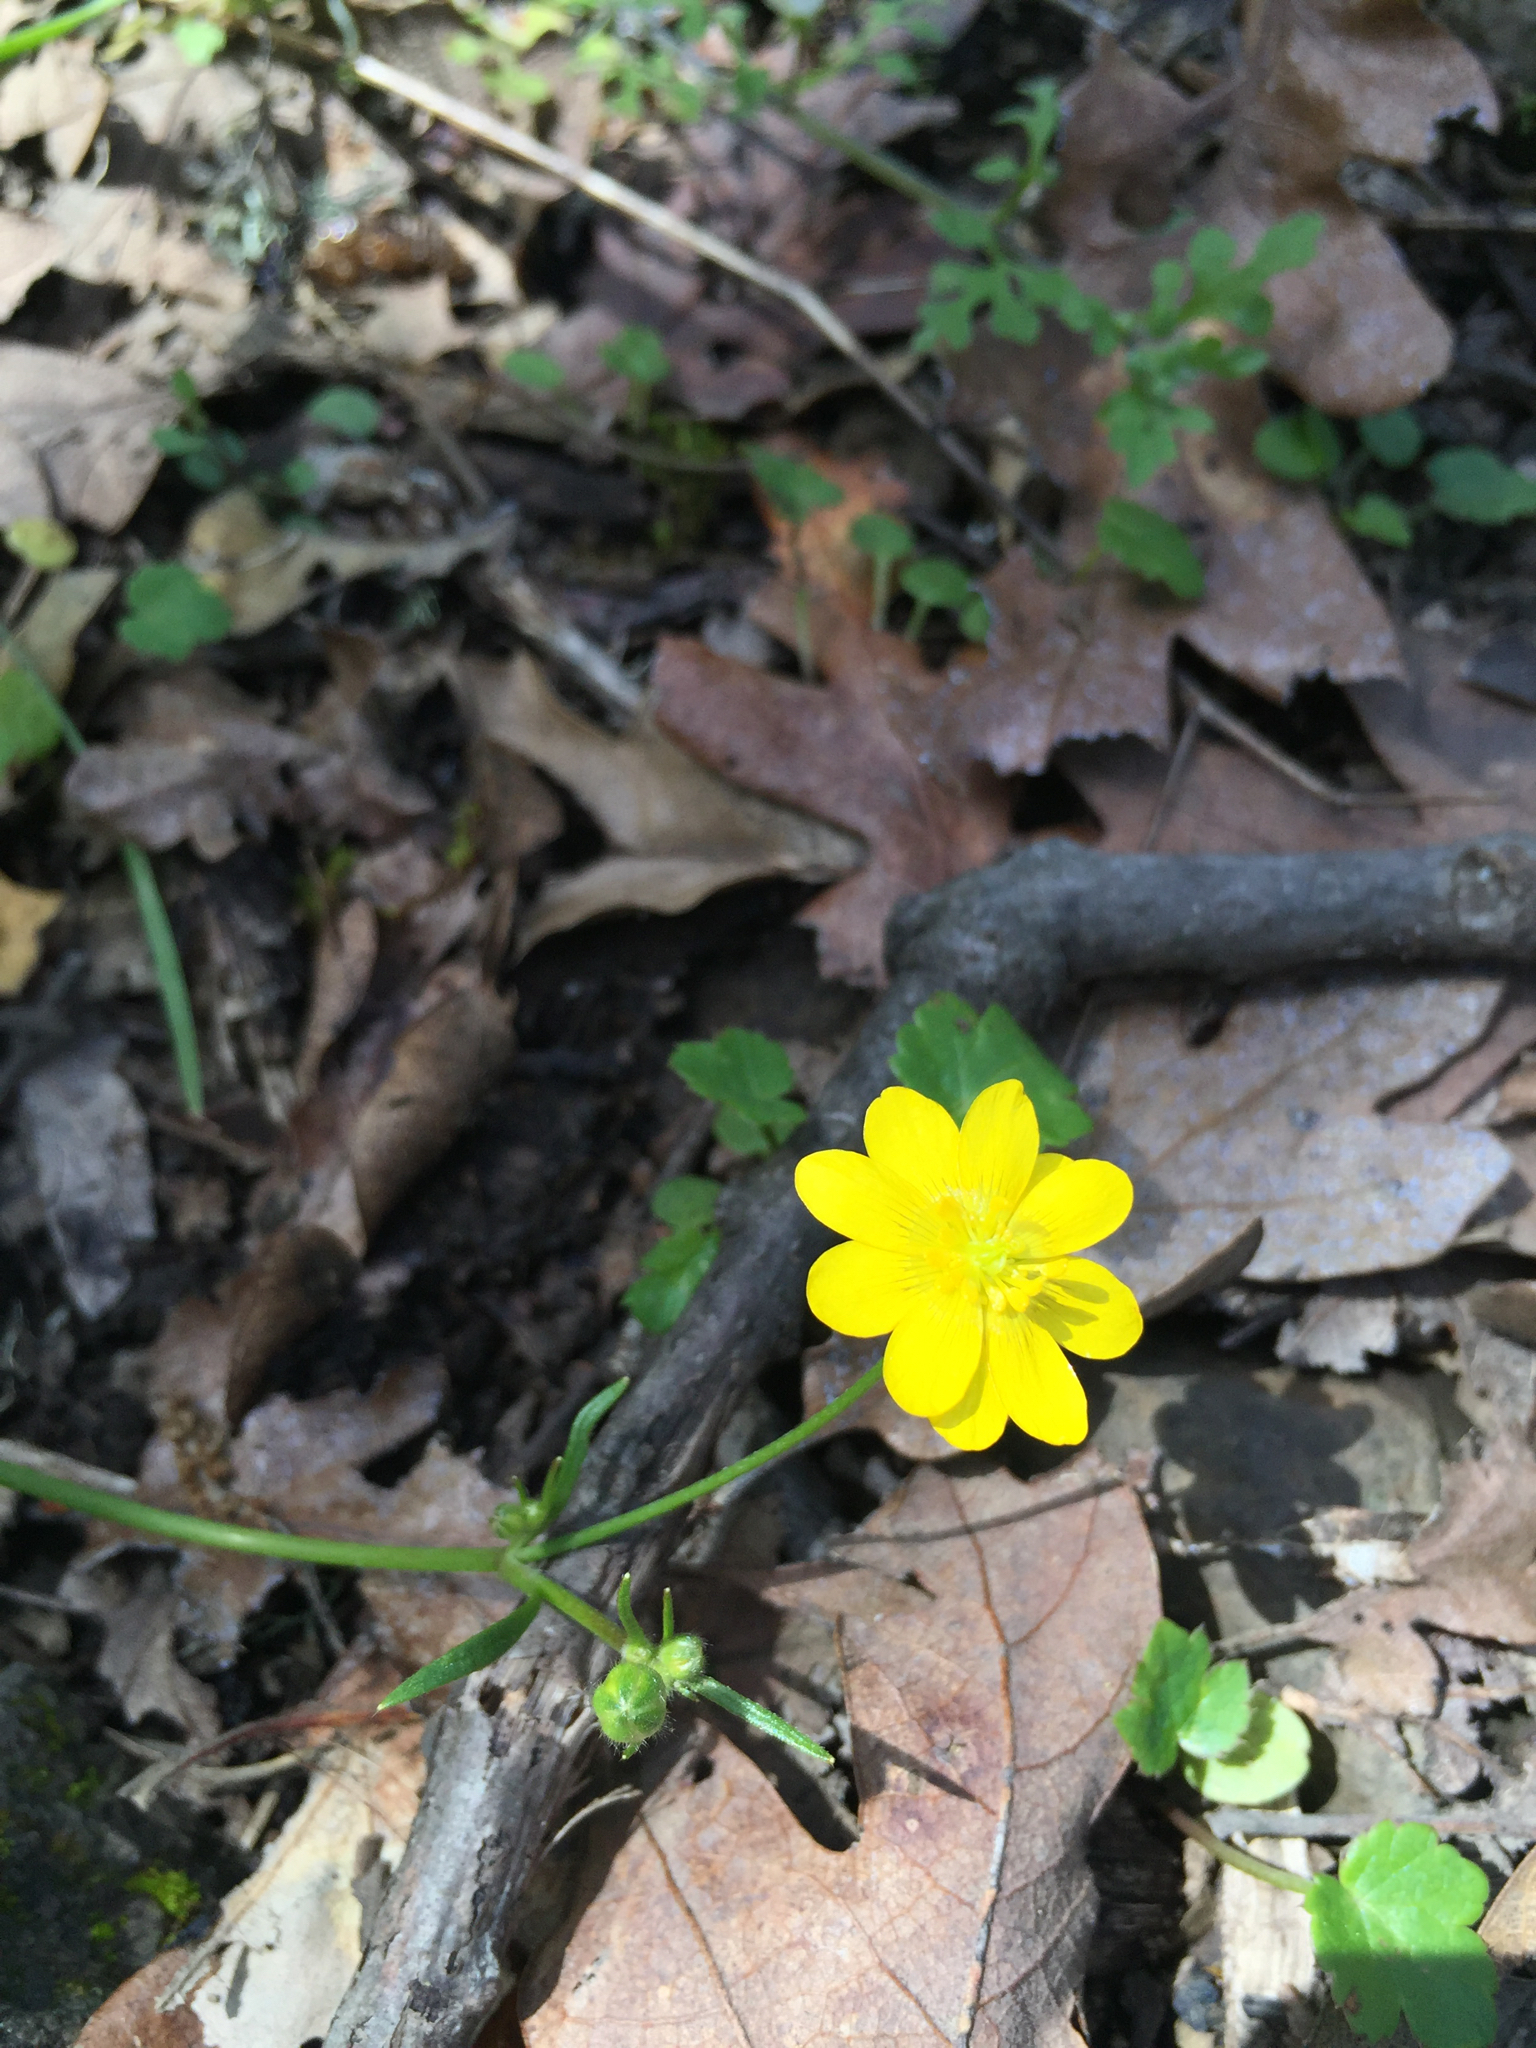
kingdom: Plantae
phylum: Tracheophyta
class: Magnoliopsida
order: Ranunculales
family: Ranunculaceae
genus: Ranunculus
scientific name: Ranunculus californicus
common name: California buttercup
